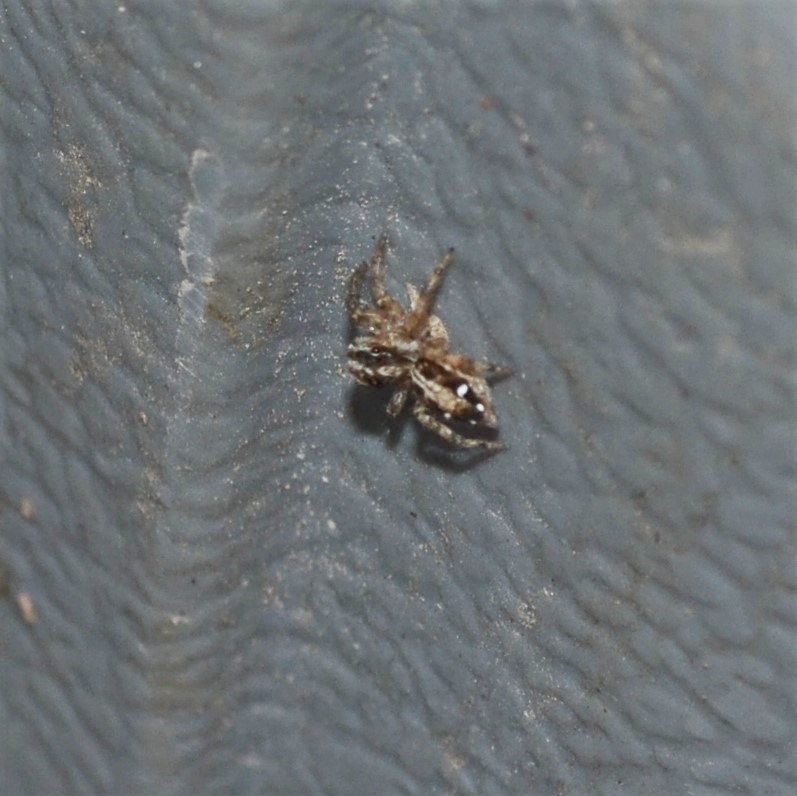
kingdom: Animalia
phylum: Arthropoda
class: Arachnida
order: Araneae
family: Salticidae
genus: Plexippus
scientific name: Plexippus paykulli
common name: Pantropical jumper
